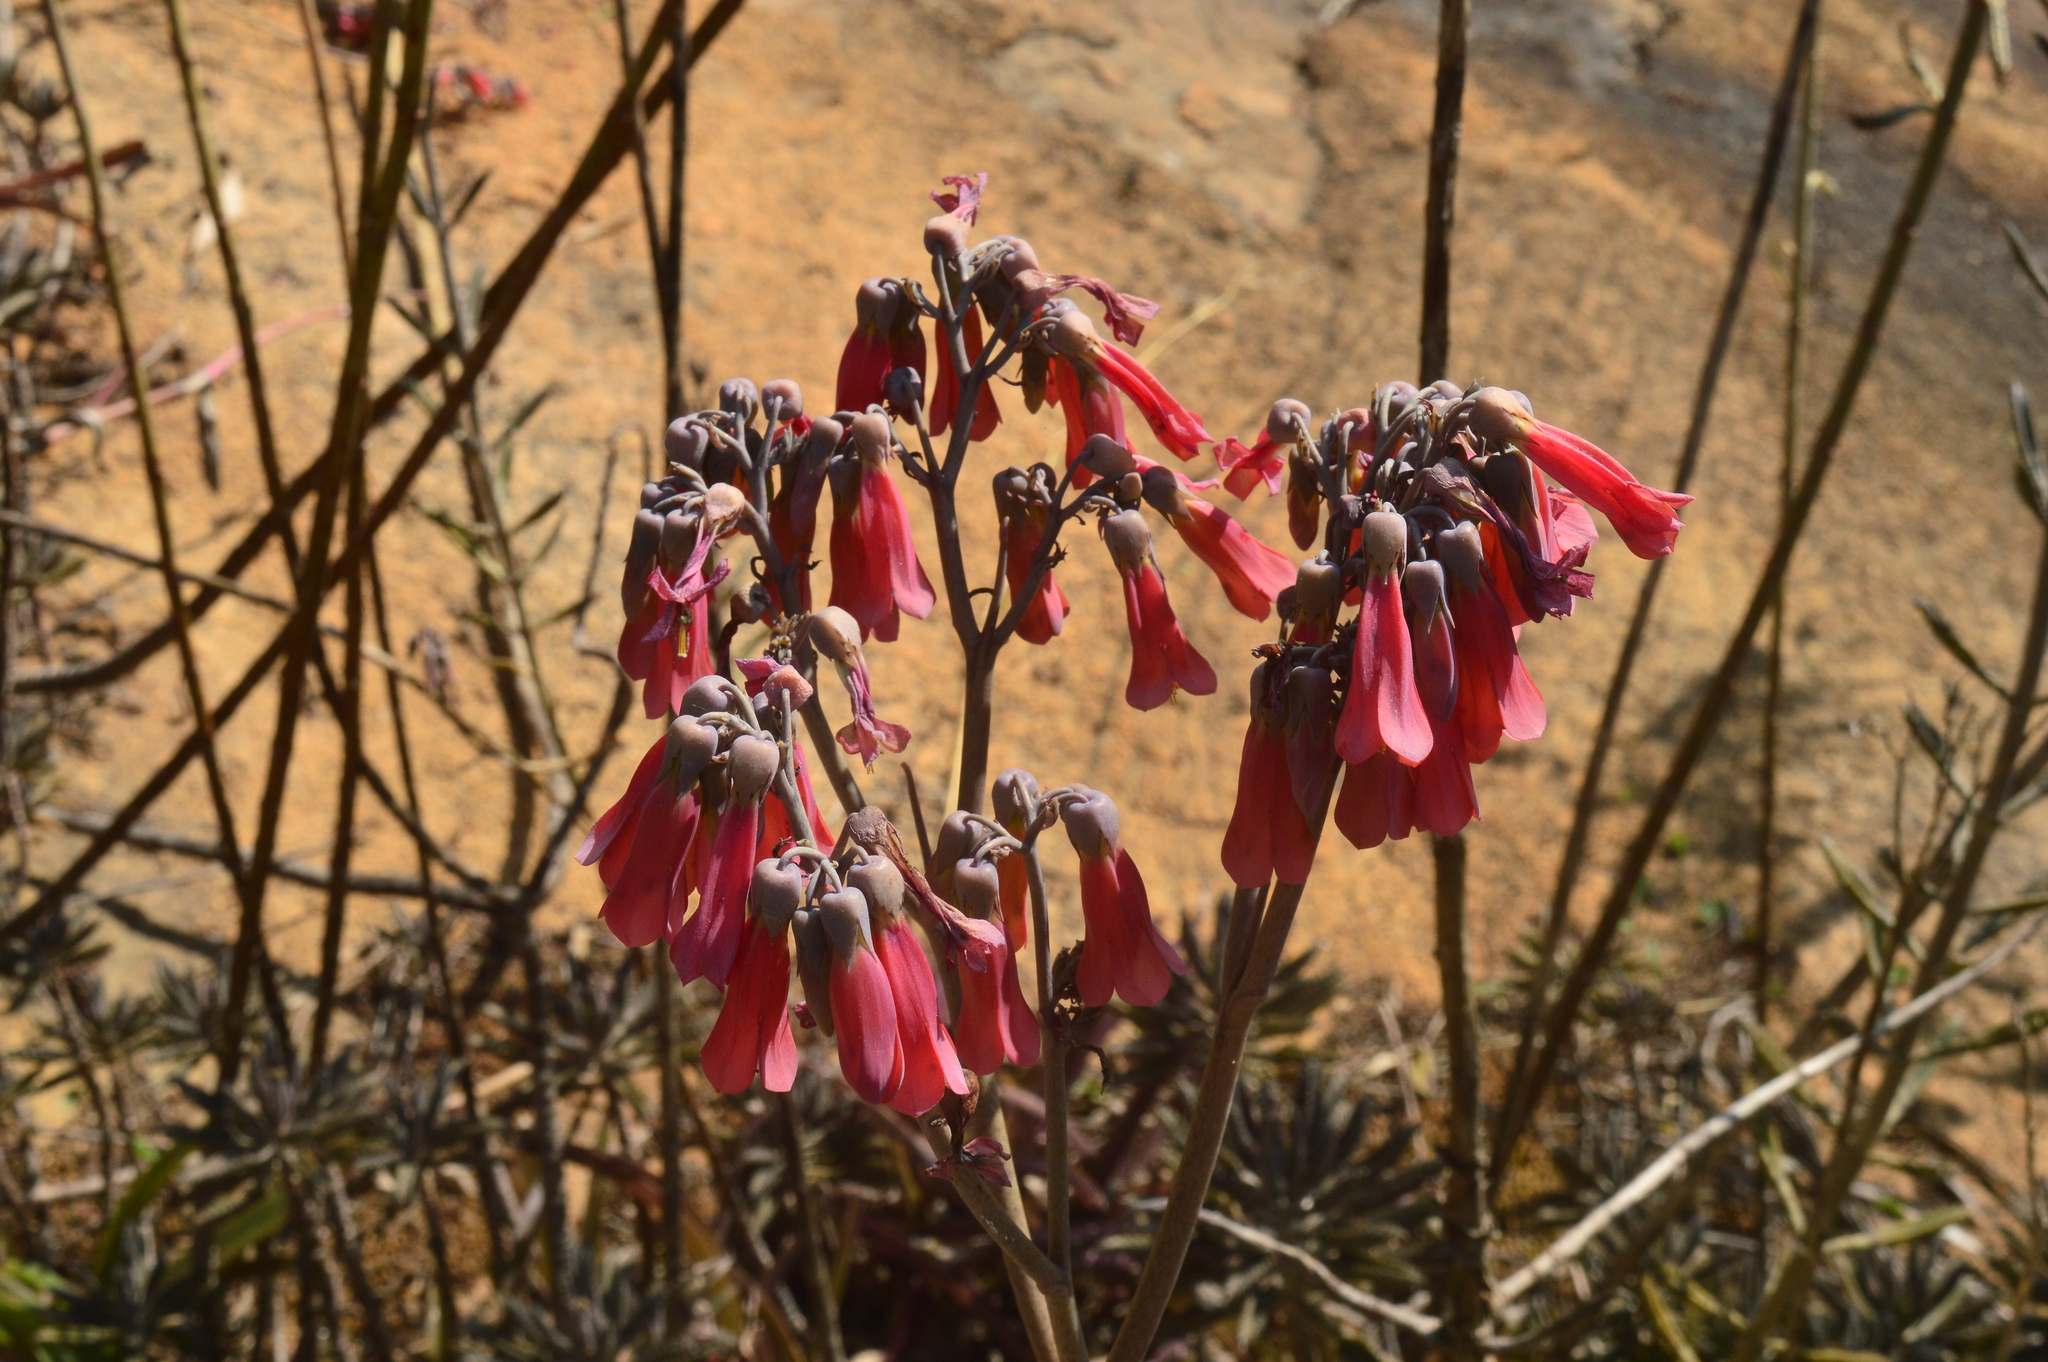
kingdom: Plantae
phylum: Tracheophyta
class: Magnoliopsida
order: Saxifragales
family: Crassulaceae
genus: Kalanchoe
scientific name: Kalanchoe houghtonii
